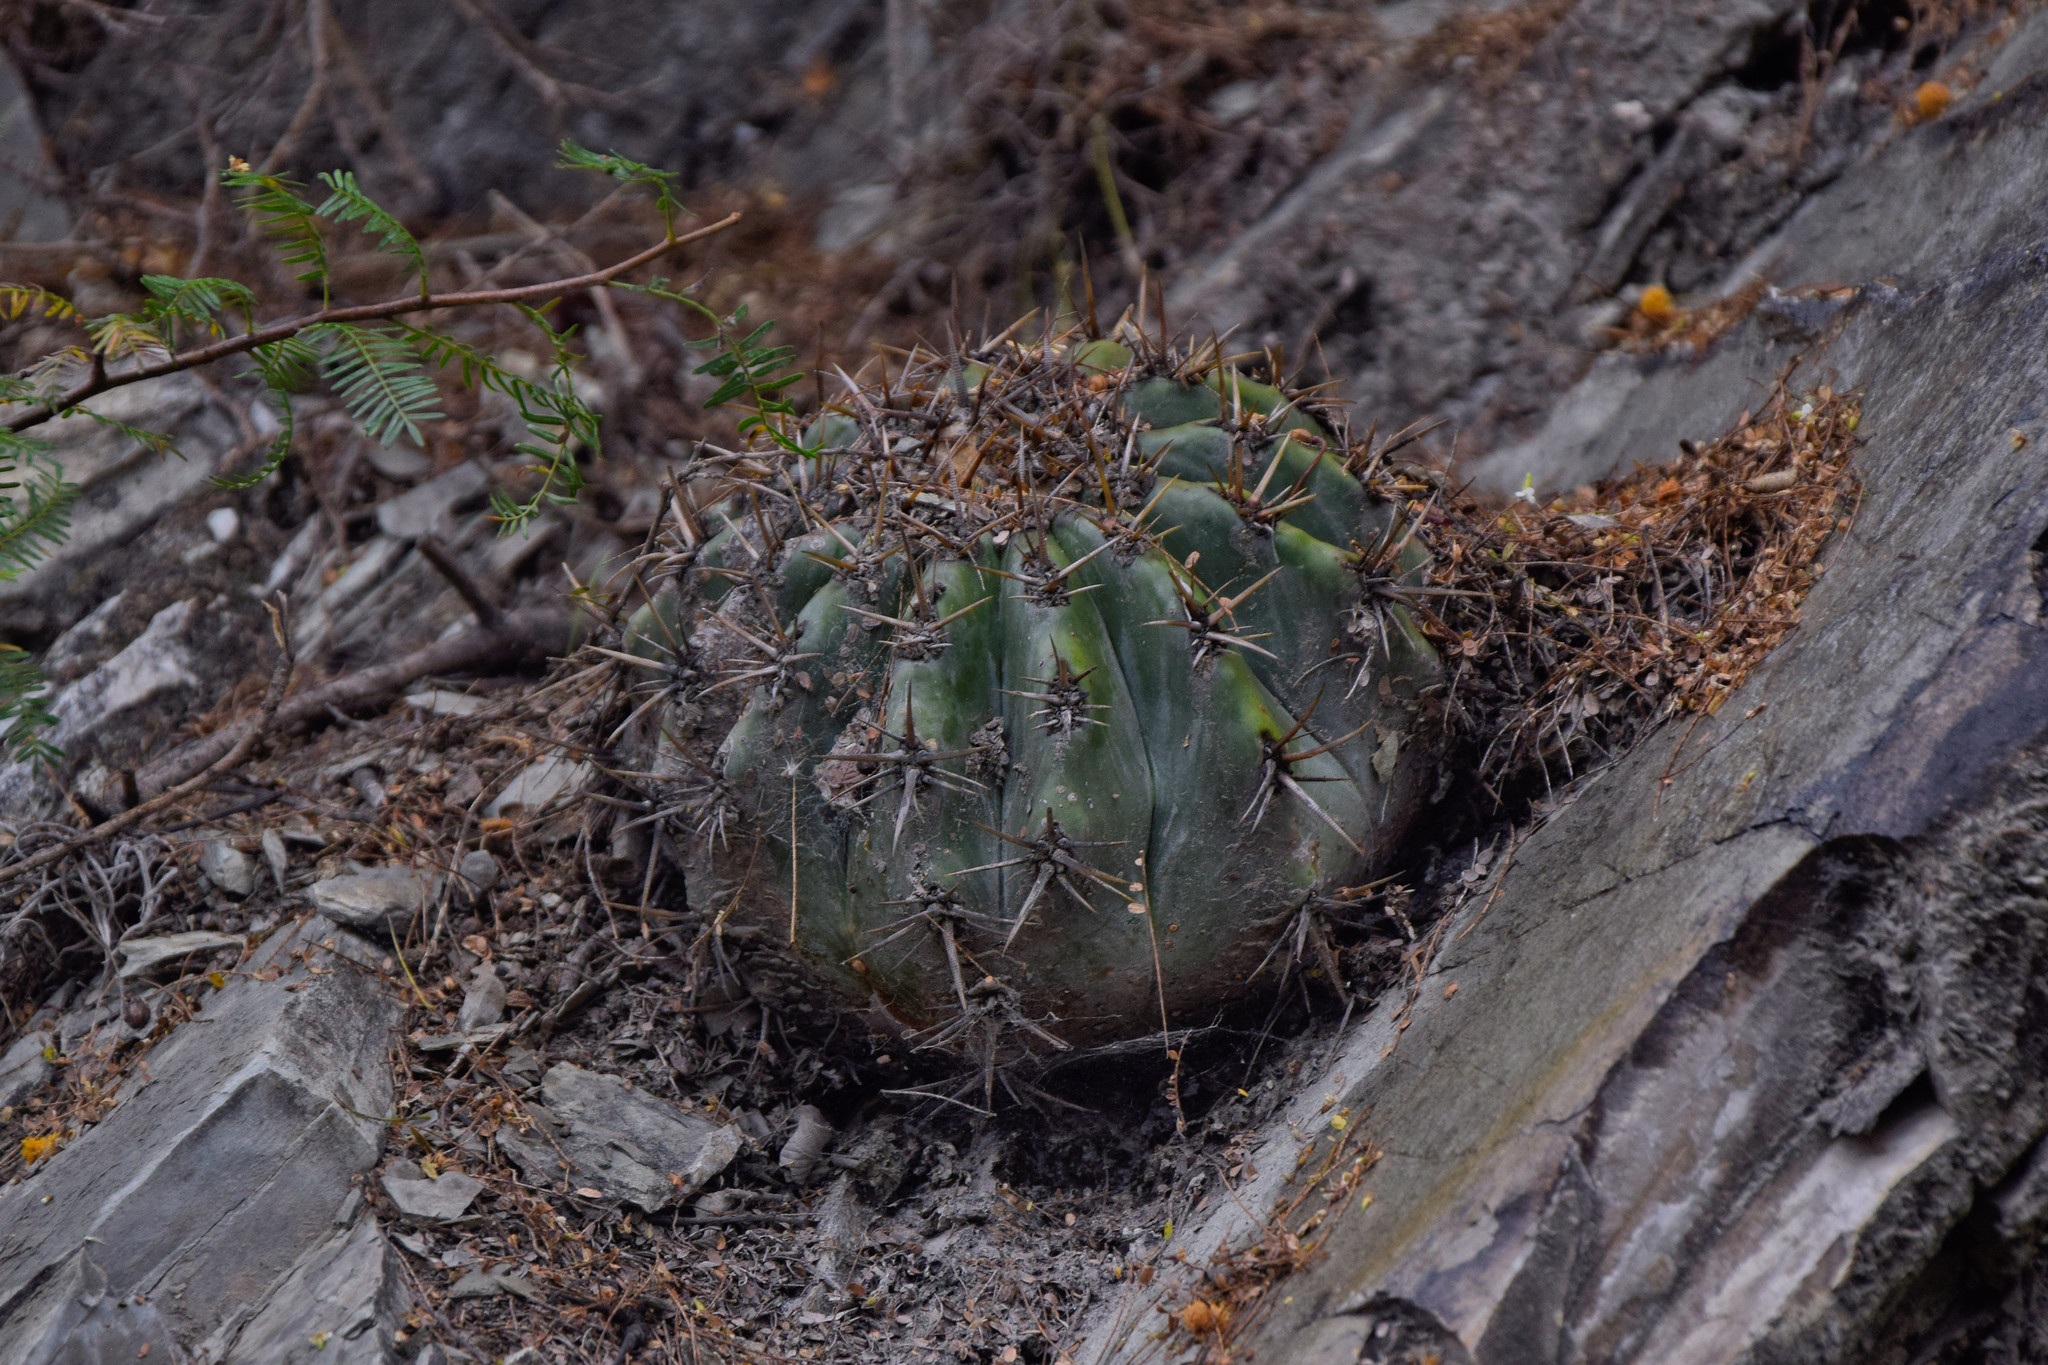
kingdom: Plantae
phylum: Tracheophyta
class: Magnoliopsida
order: Caryophyllales
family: Cactaceae
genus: Echinocactus
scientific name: Echinocactus platyacanthus
